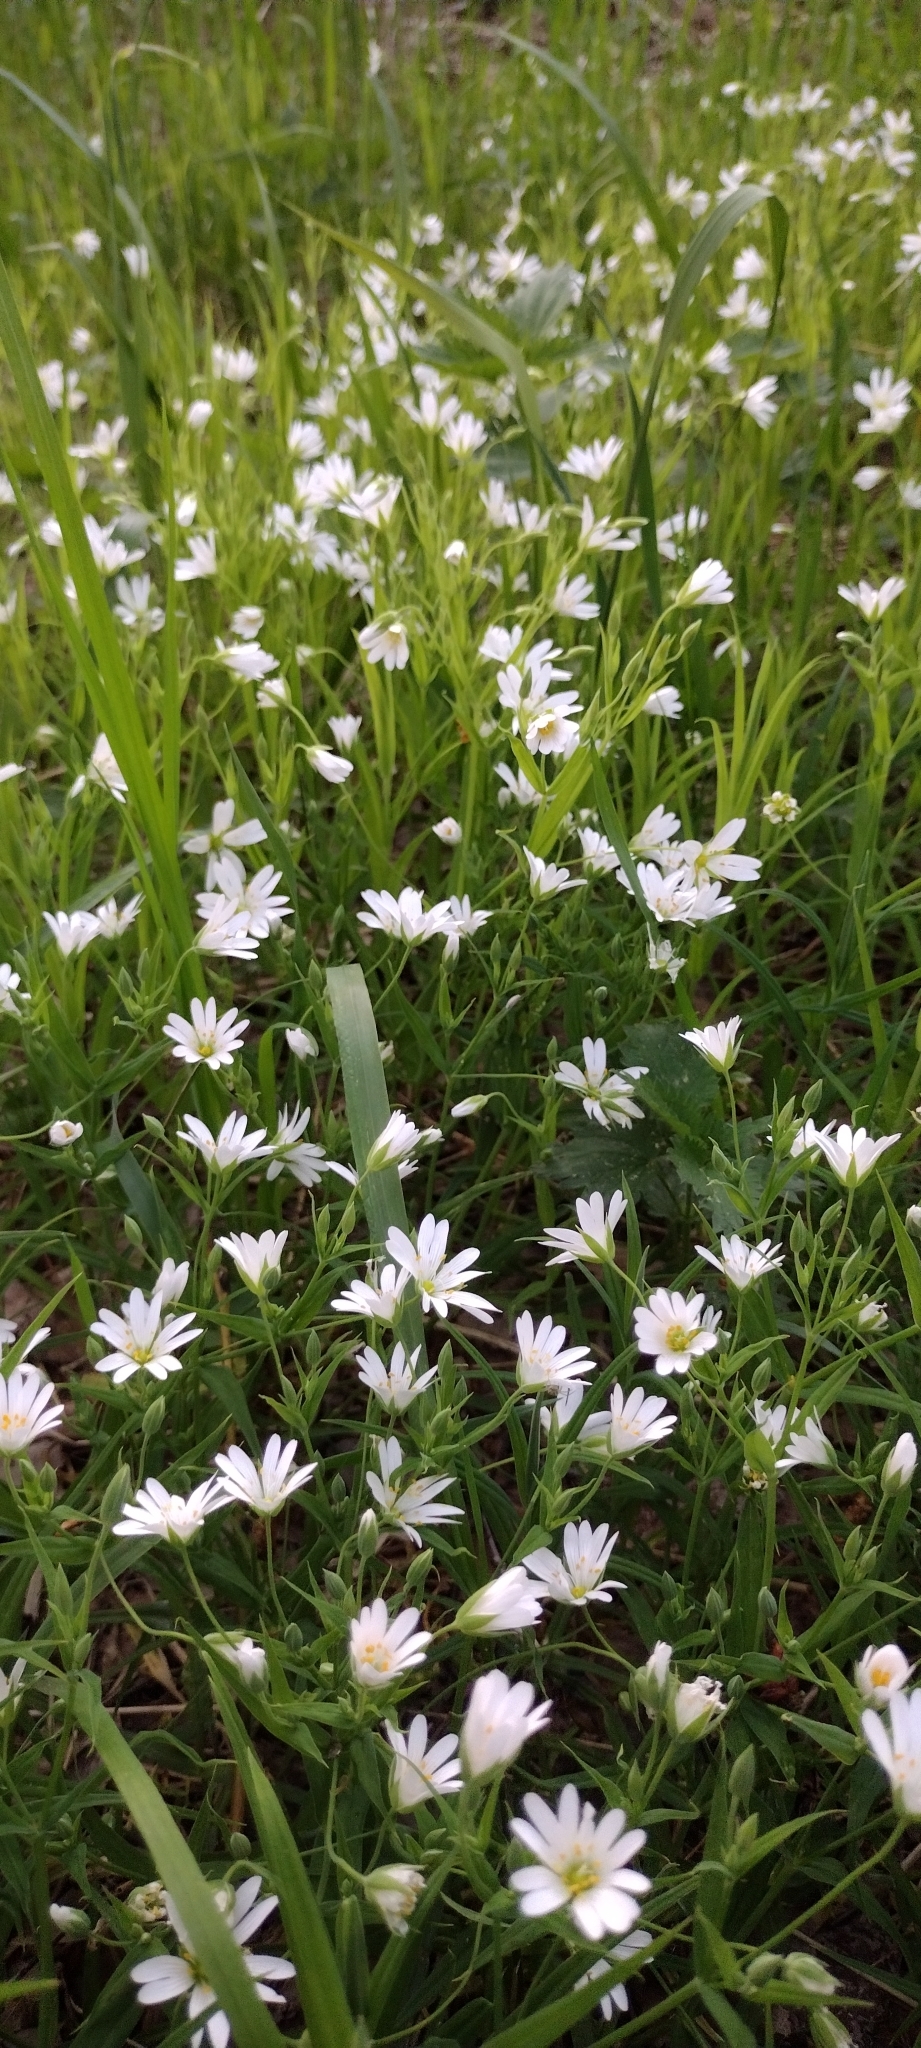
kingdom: Plantae
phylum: Tracheophyta
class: Magnoliopsida
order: Caryophyllales
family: Caryophyllaceae
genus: Rabelera
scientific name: Rabelera holostea
